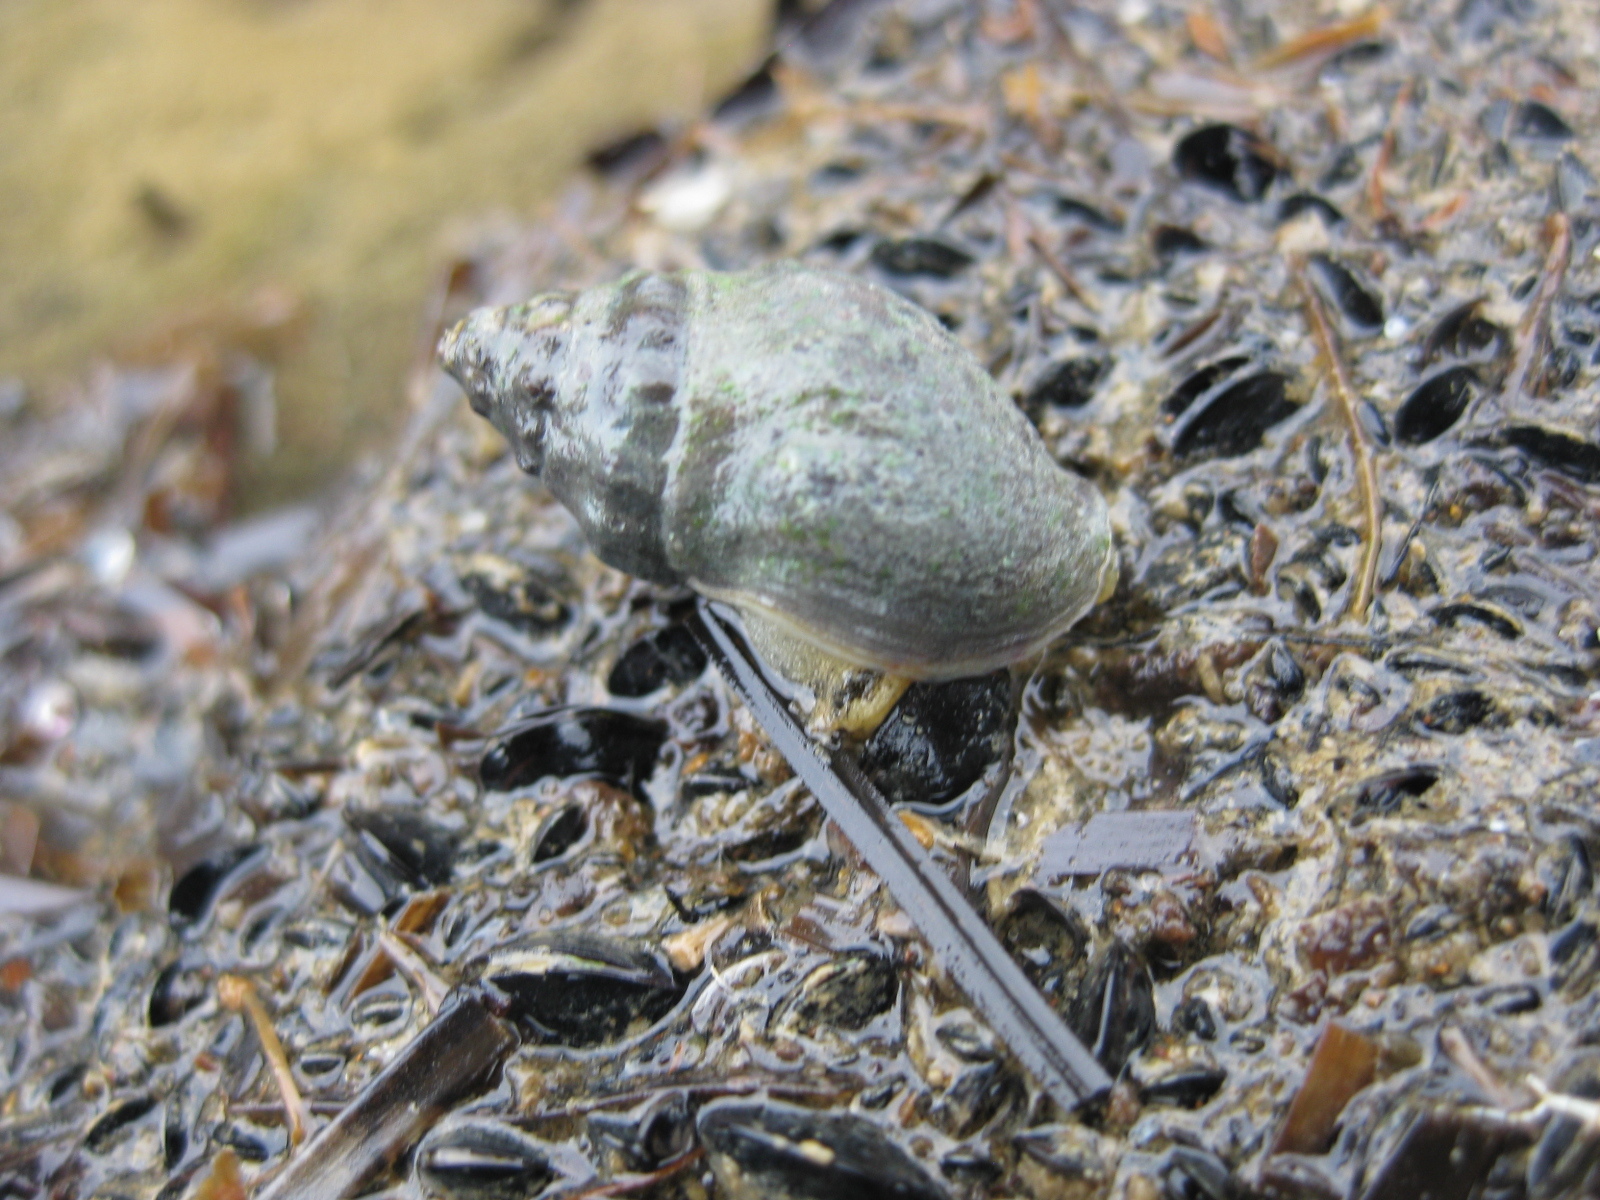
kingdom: Animalia
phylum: Mollusca
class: Gastropoda
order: Neogastropoda
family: Cominellidae
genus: Cominella
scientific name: Cominella glandiformis
